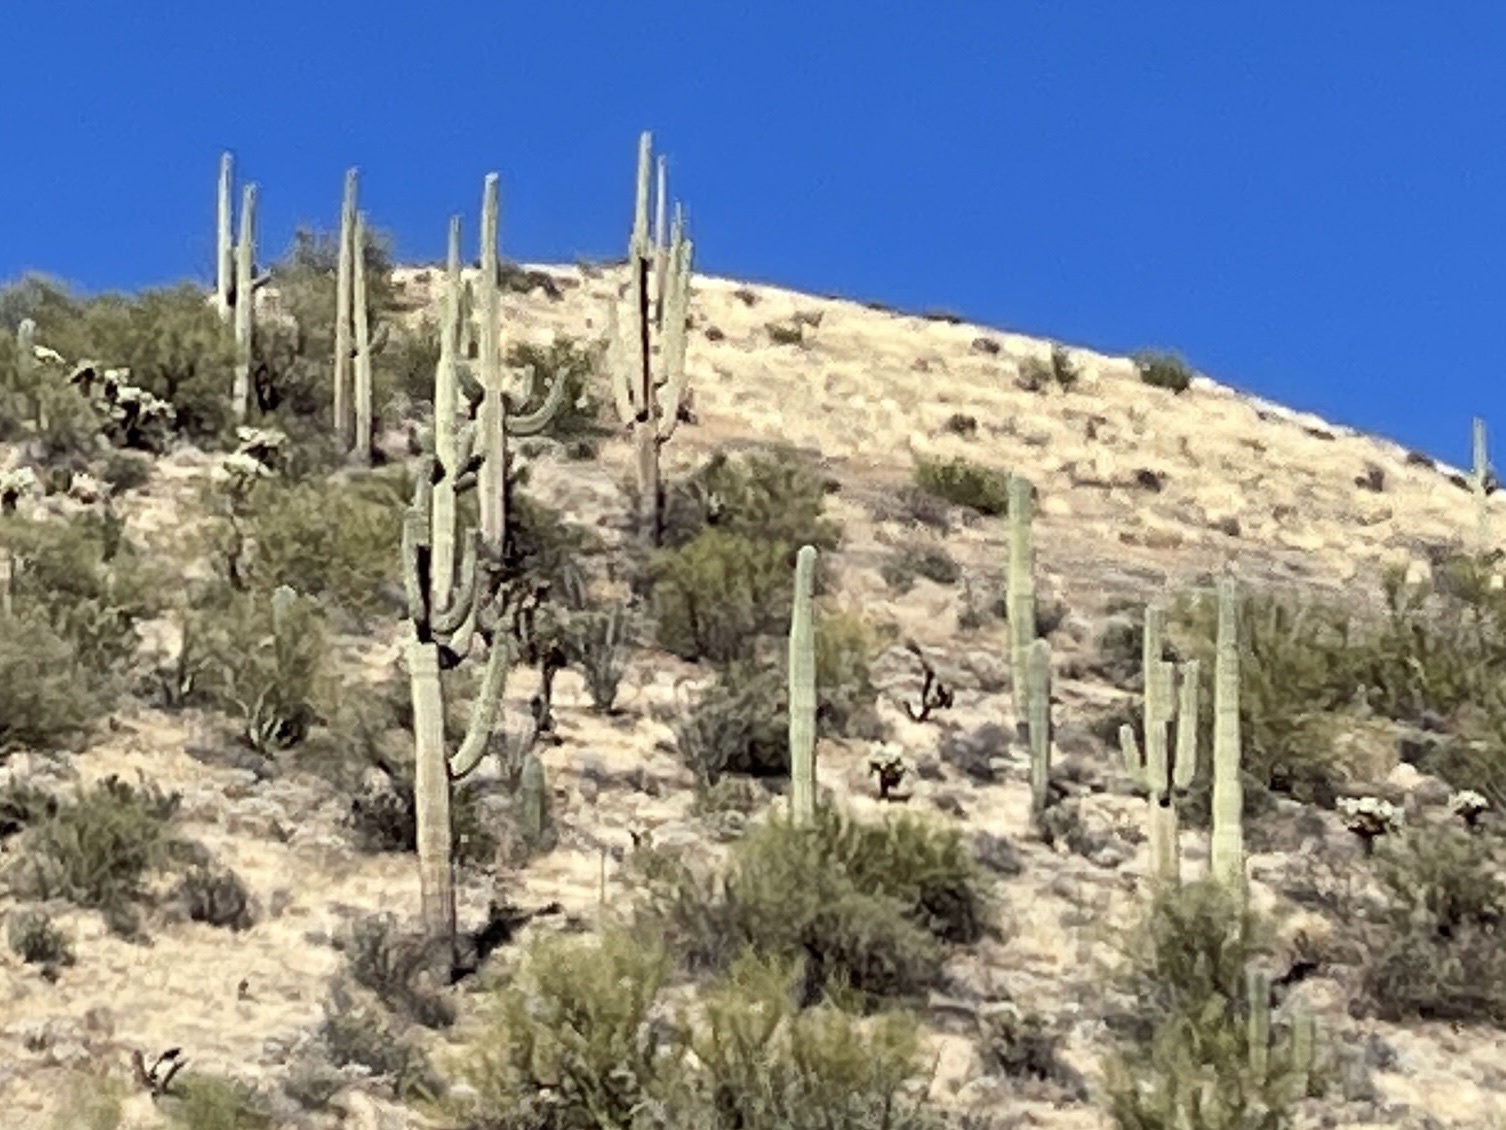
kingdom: Plantae
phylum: Tracheophyta
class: Magnoliopsida
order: Caryophyllales
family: Cactaceae
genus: Carnegiea
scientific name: Carnegiea gigantea
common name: Saguaro
